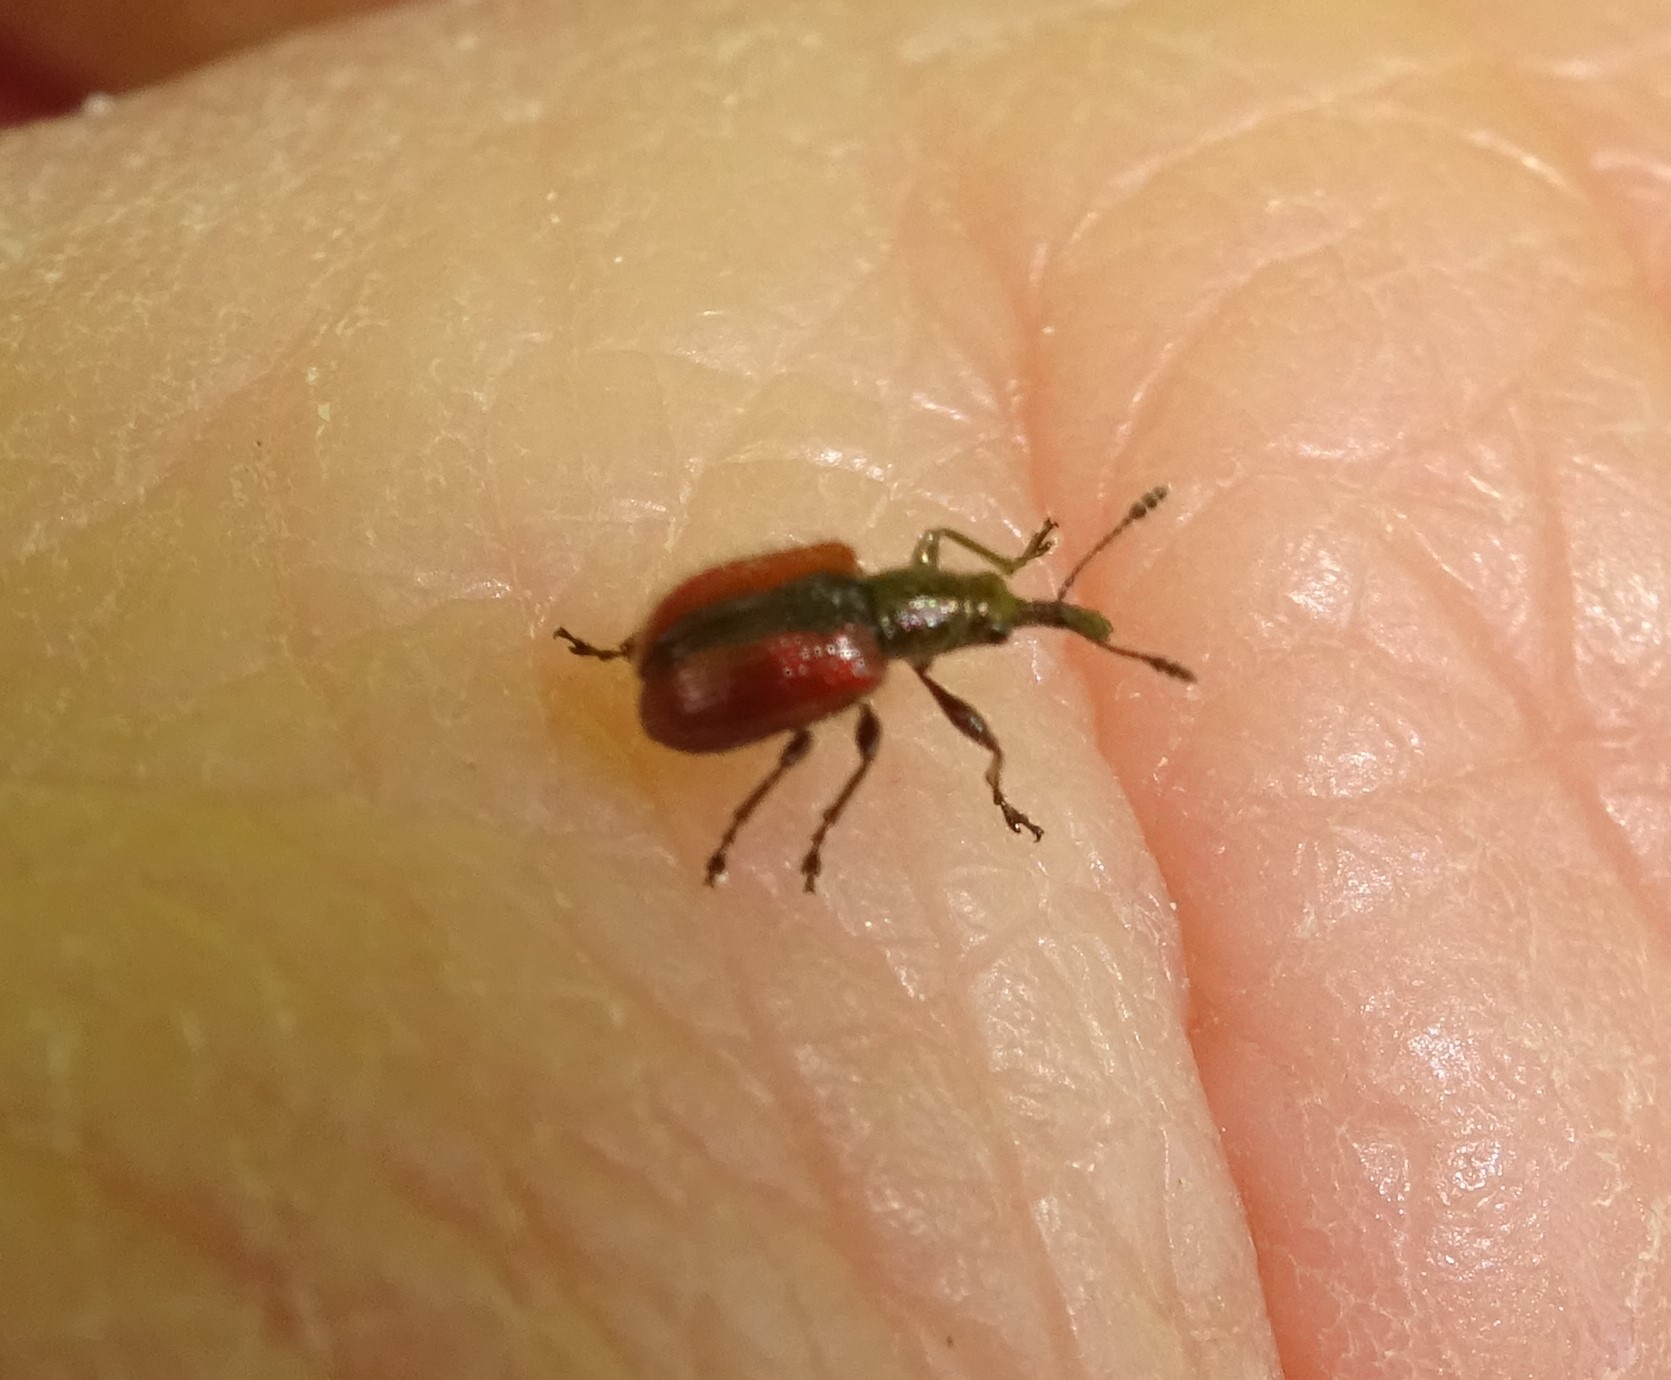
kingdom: Animalia
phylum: Arthropoda
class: Insecta
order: Coleoptera
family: Rhynchitidae
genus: Tatianaerhynchites
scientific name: Tatianaerhynchites aequatus
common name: Apple fruit rhynchites
